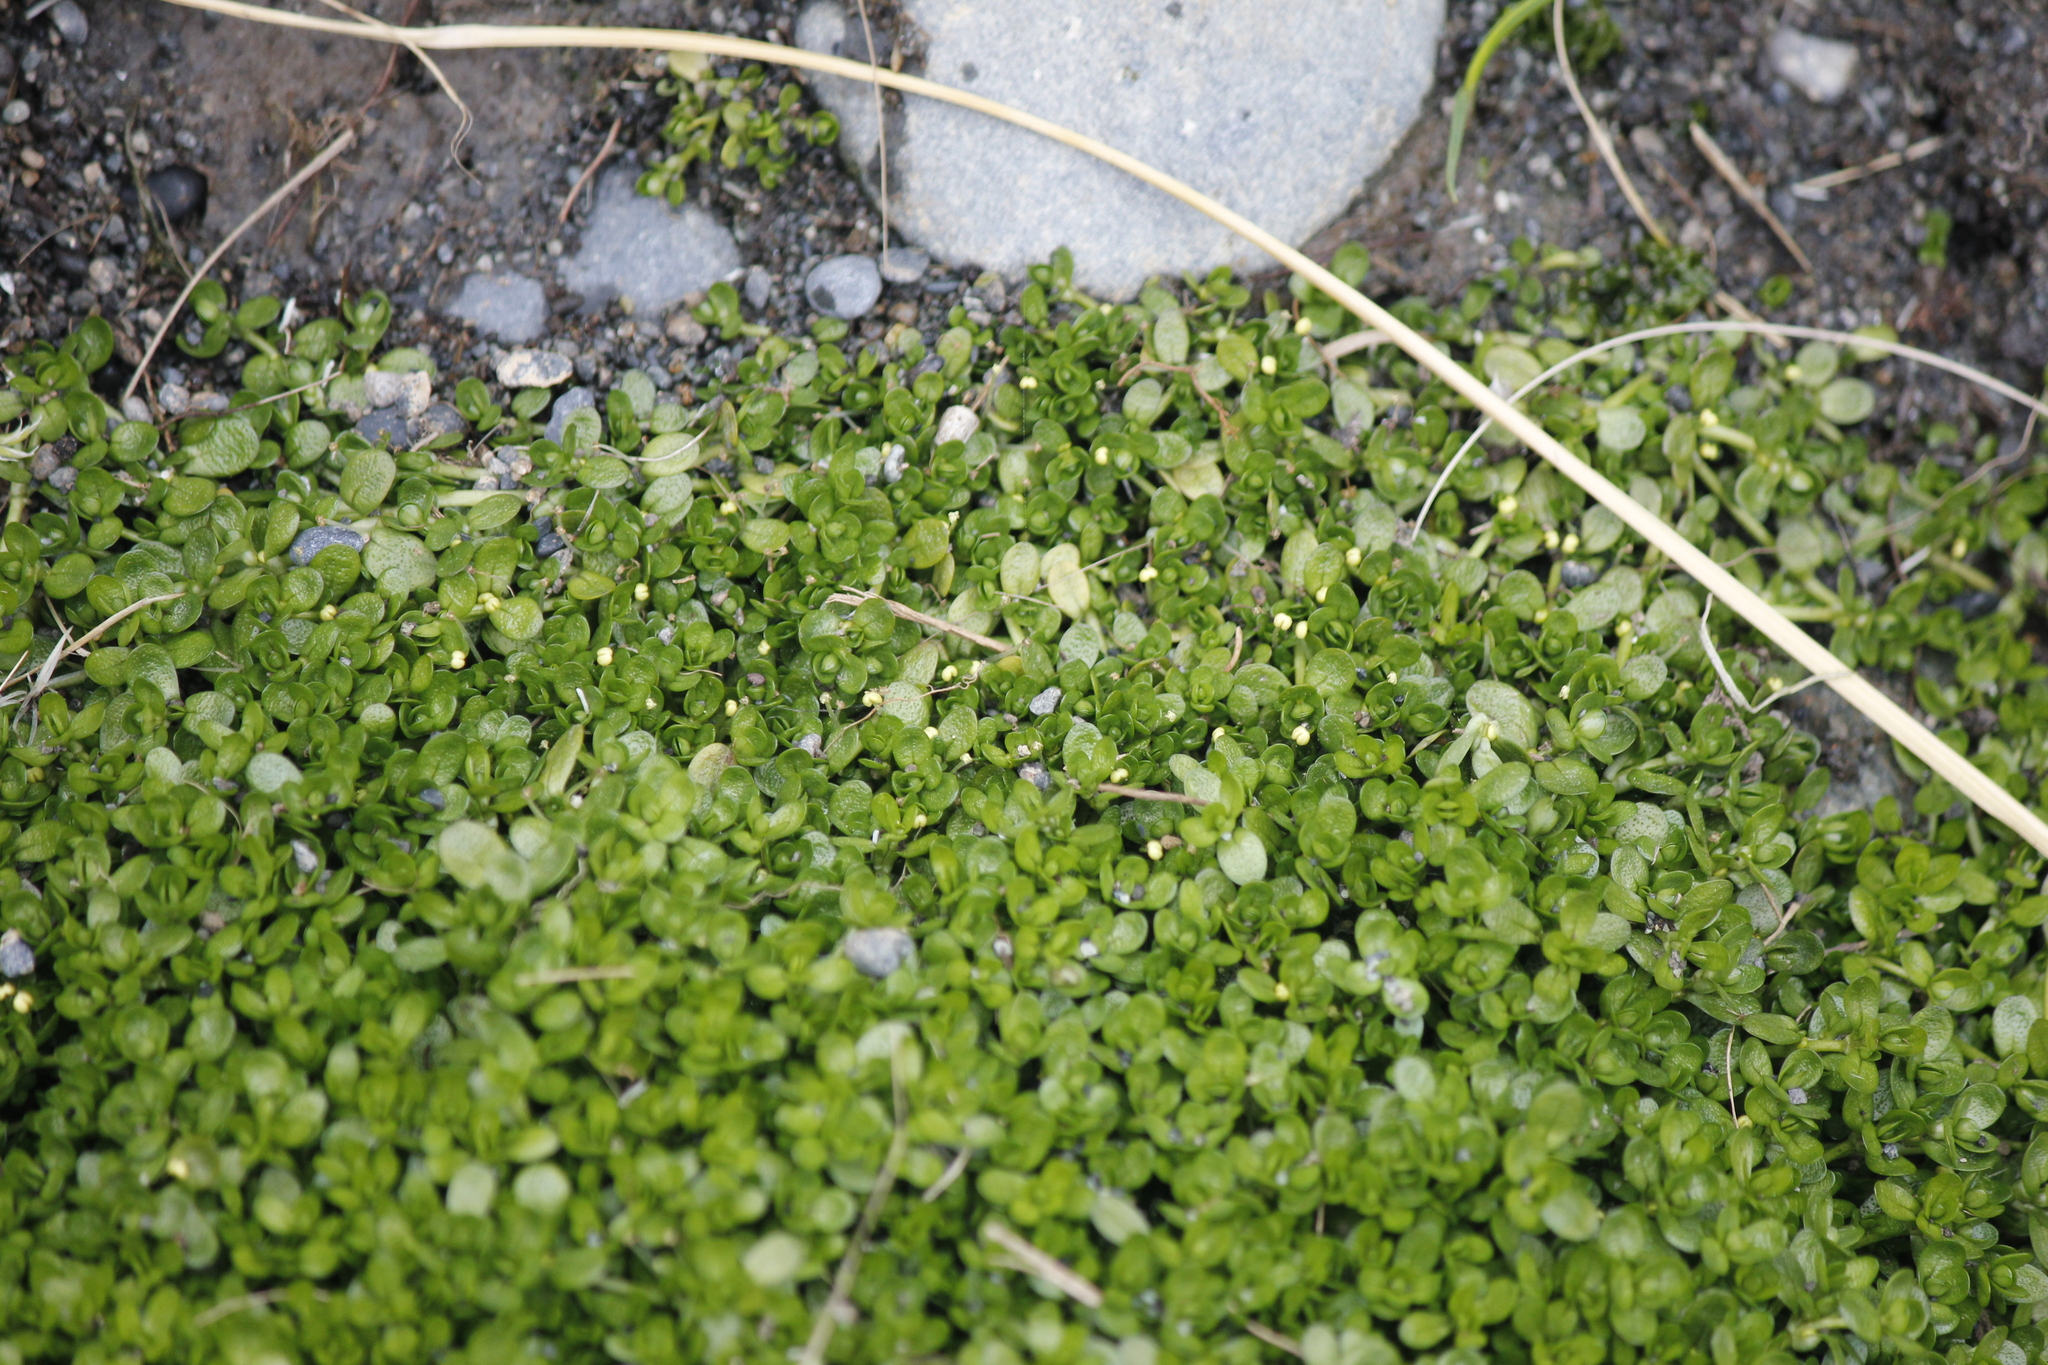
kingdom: Plantae
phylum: Tracheophyta
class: Magnoliopsida
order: Lamiales
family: Plantaginaceae
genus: Callitriche
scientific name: Callitriche antarctica
